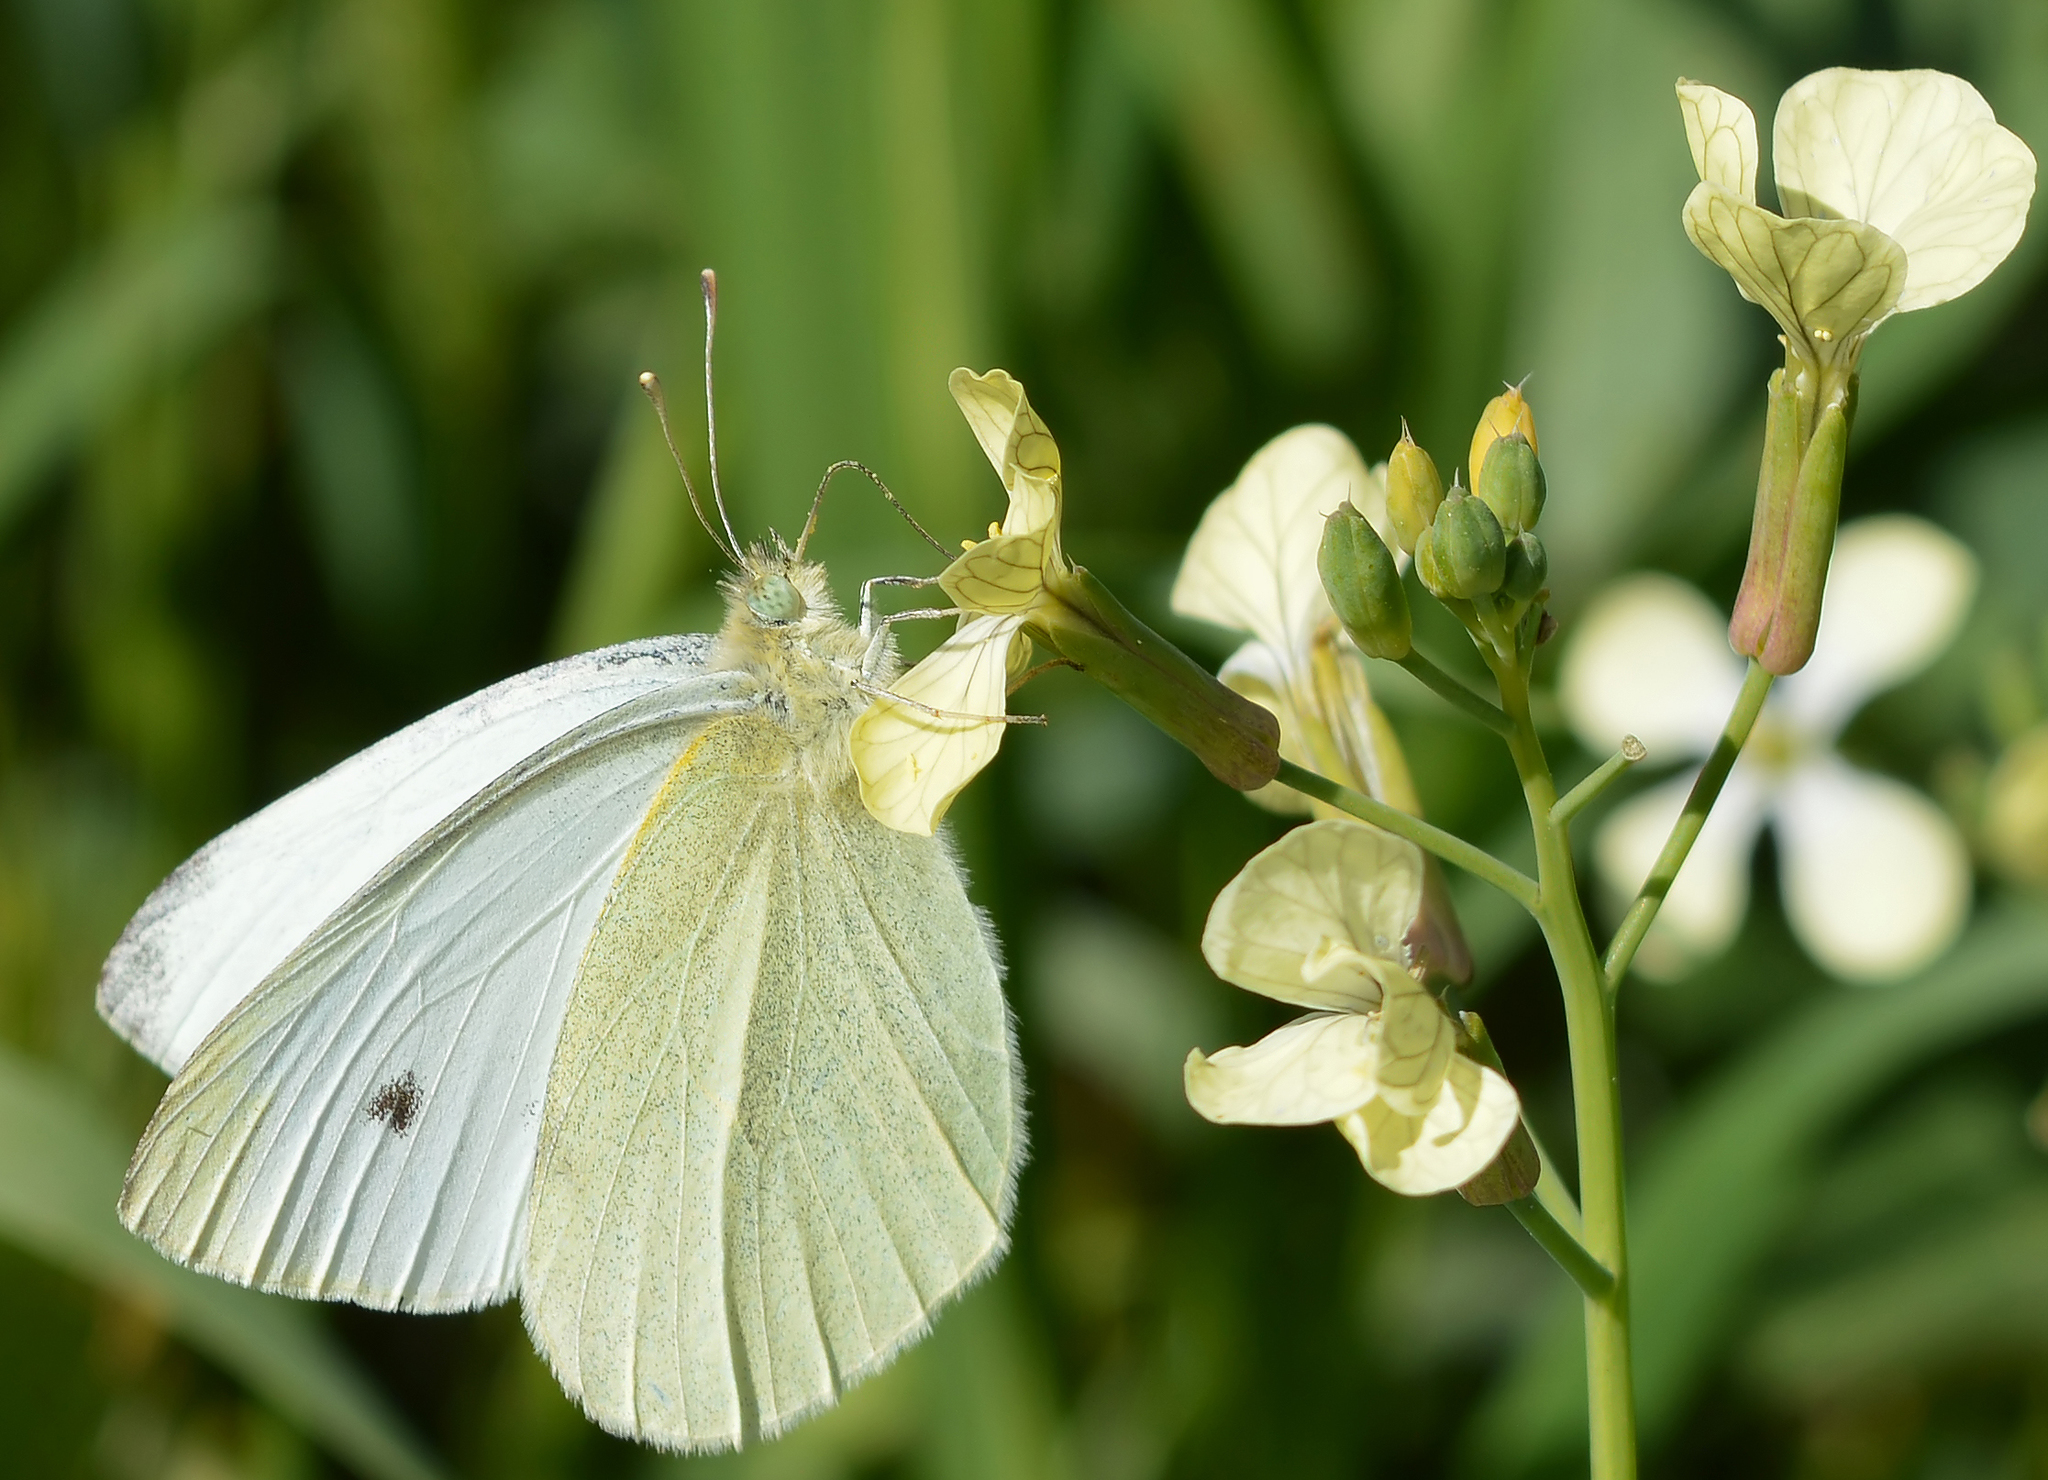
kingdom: Animalia
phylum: Arthropoda
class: Insecta
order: Lepidoptera
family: Pieridae
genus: Pieris
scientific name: Pieris rapae
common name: Small white
